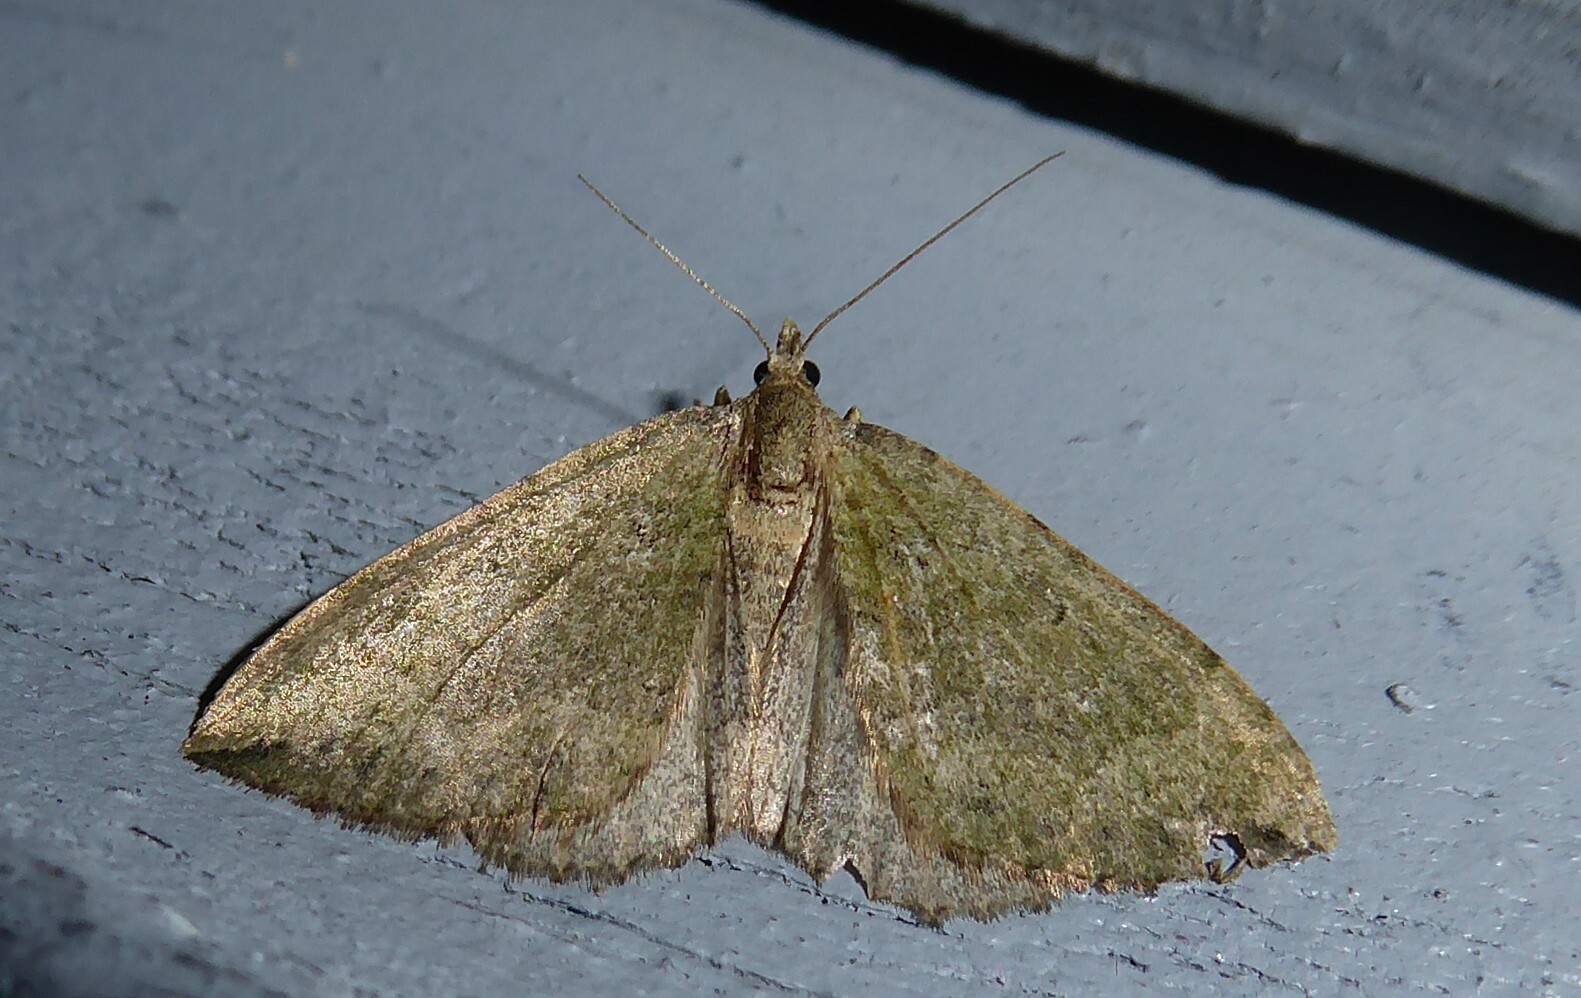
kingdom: Animalia
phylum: Arthropoda
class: Insecta
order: Lepidoptera
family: Geometridae
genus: Epyaxa
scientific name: Epyaxa rosearia
